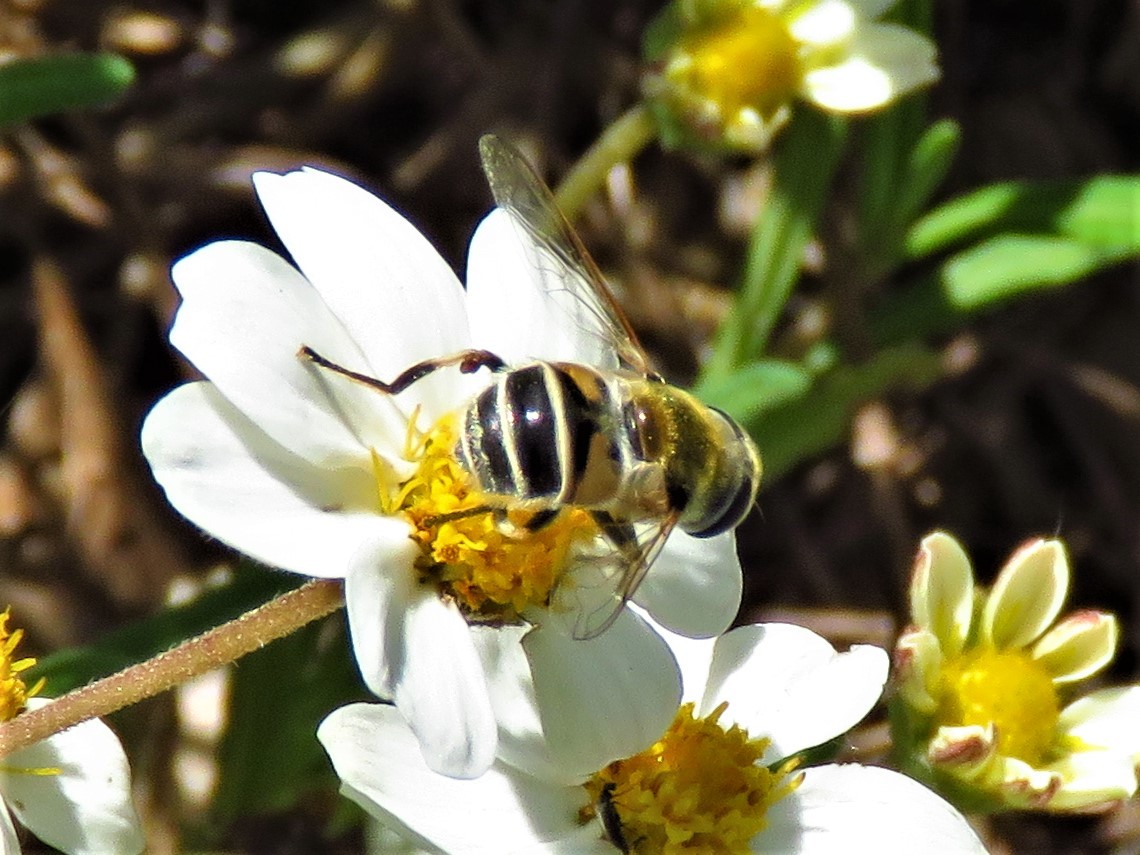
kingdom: Animalia
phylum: Arthropoda
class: Insecta
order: Diptera
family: Syrphidae
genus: Eristalis
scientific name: Eristalis stipator
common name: Yellow-shouldered drone fly
